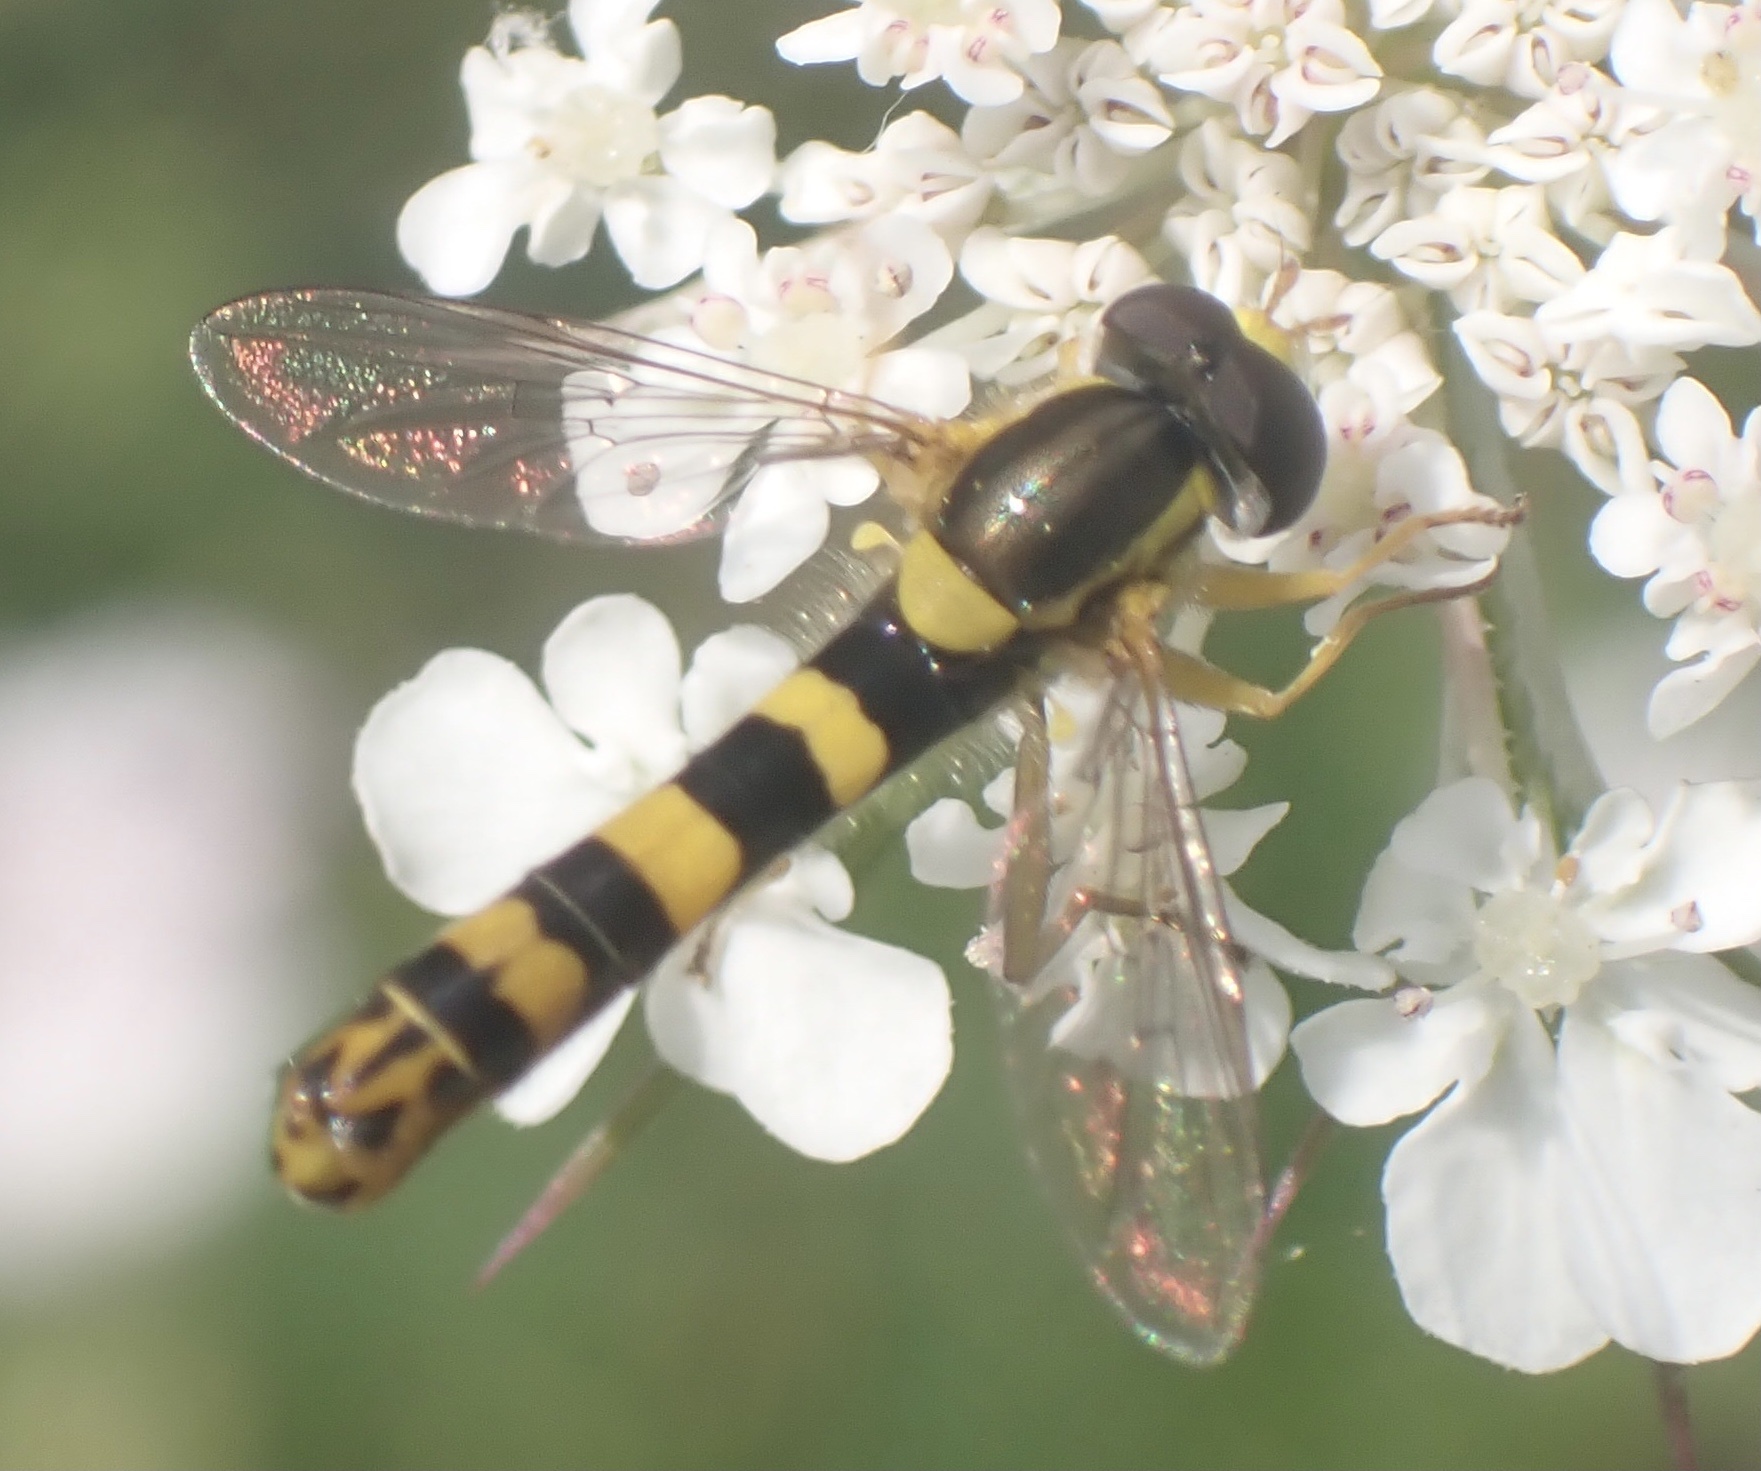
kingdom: Animalia
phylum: Arthropoda
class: Insecta
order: Diptera
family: Syrphidae
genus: Sphaerophoria
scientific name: Sphaerophoria scripta
